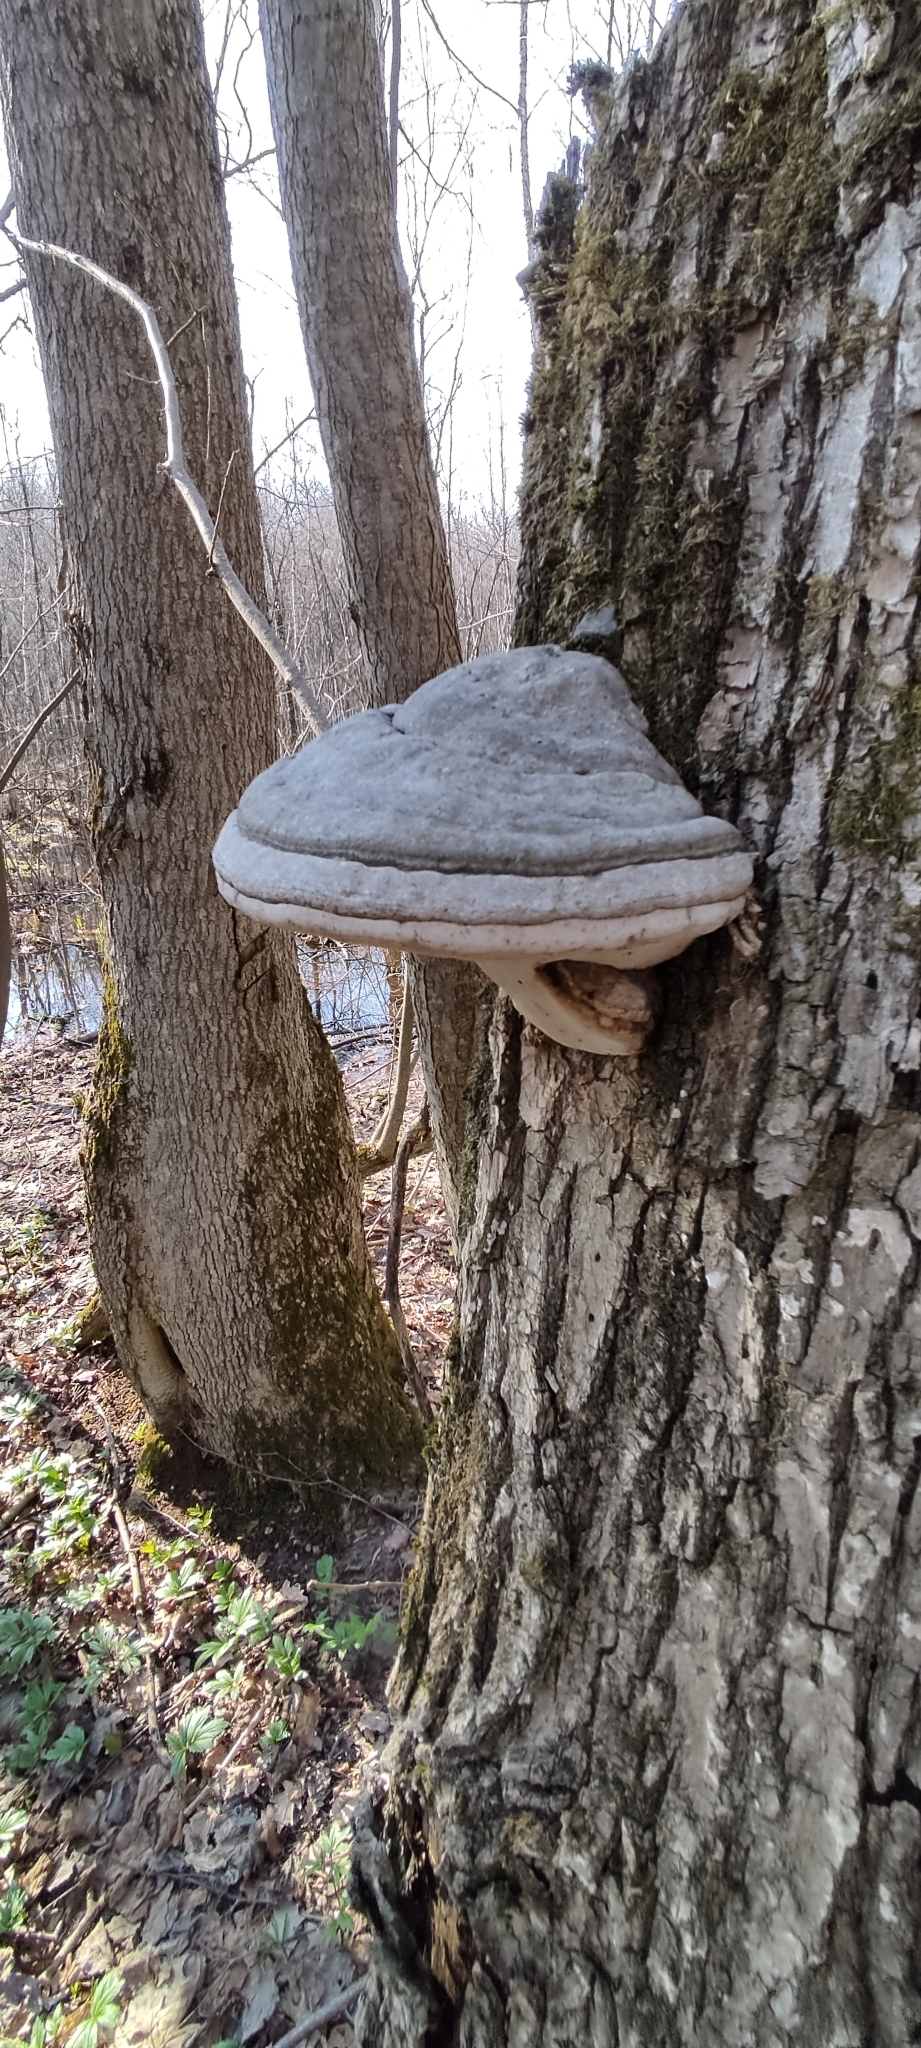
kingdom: Fungi
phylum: Basidiomycota
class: Agaricomycetes
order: Polyporales
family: Polyporaceae
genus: Fomes
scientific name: Fomes fomentarius
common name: Hoof fungus
